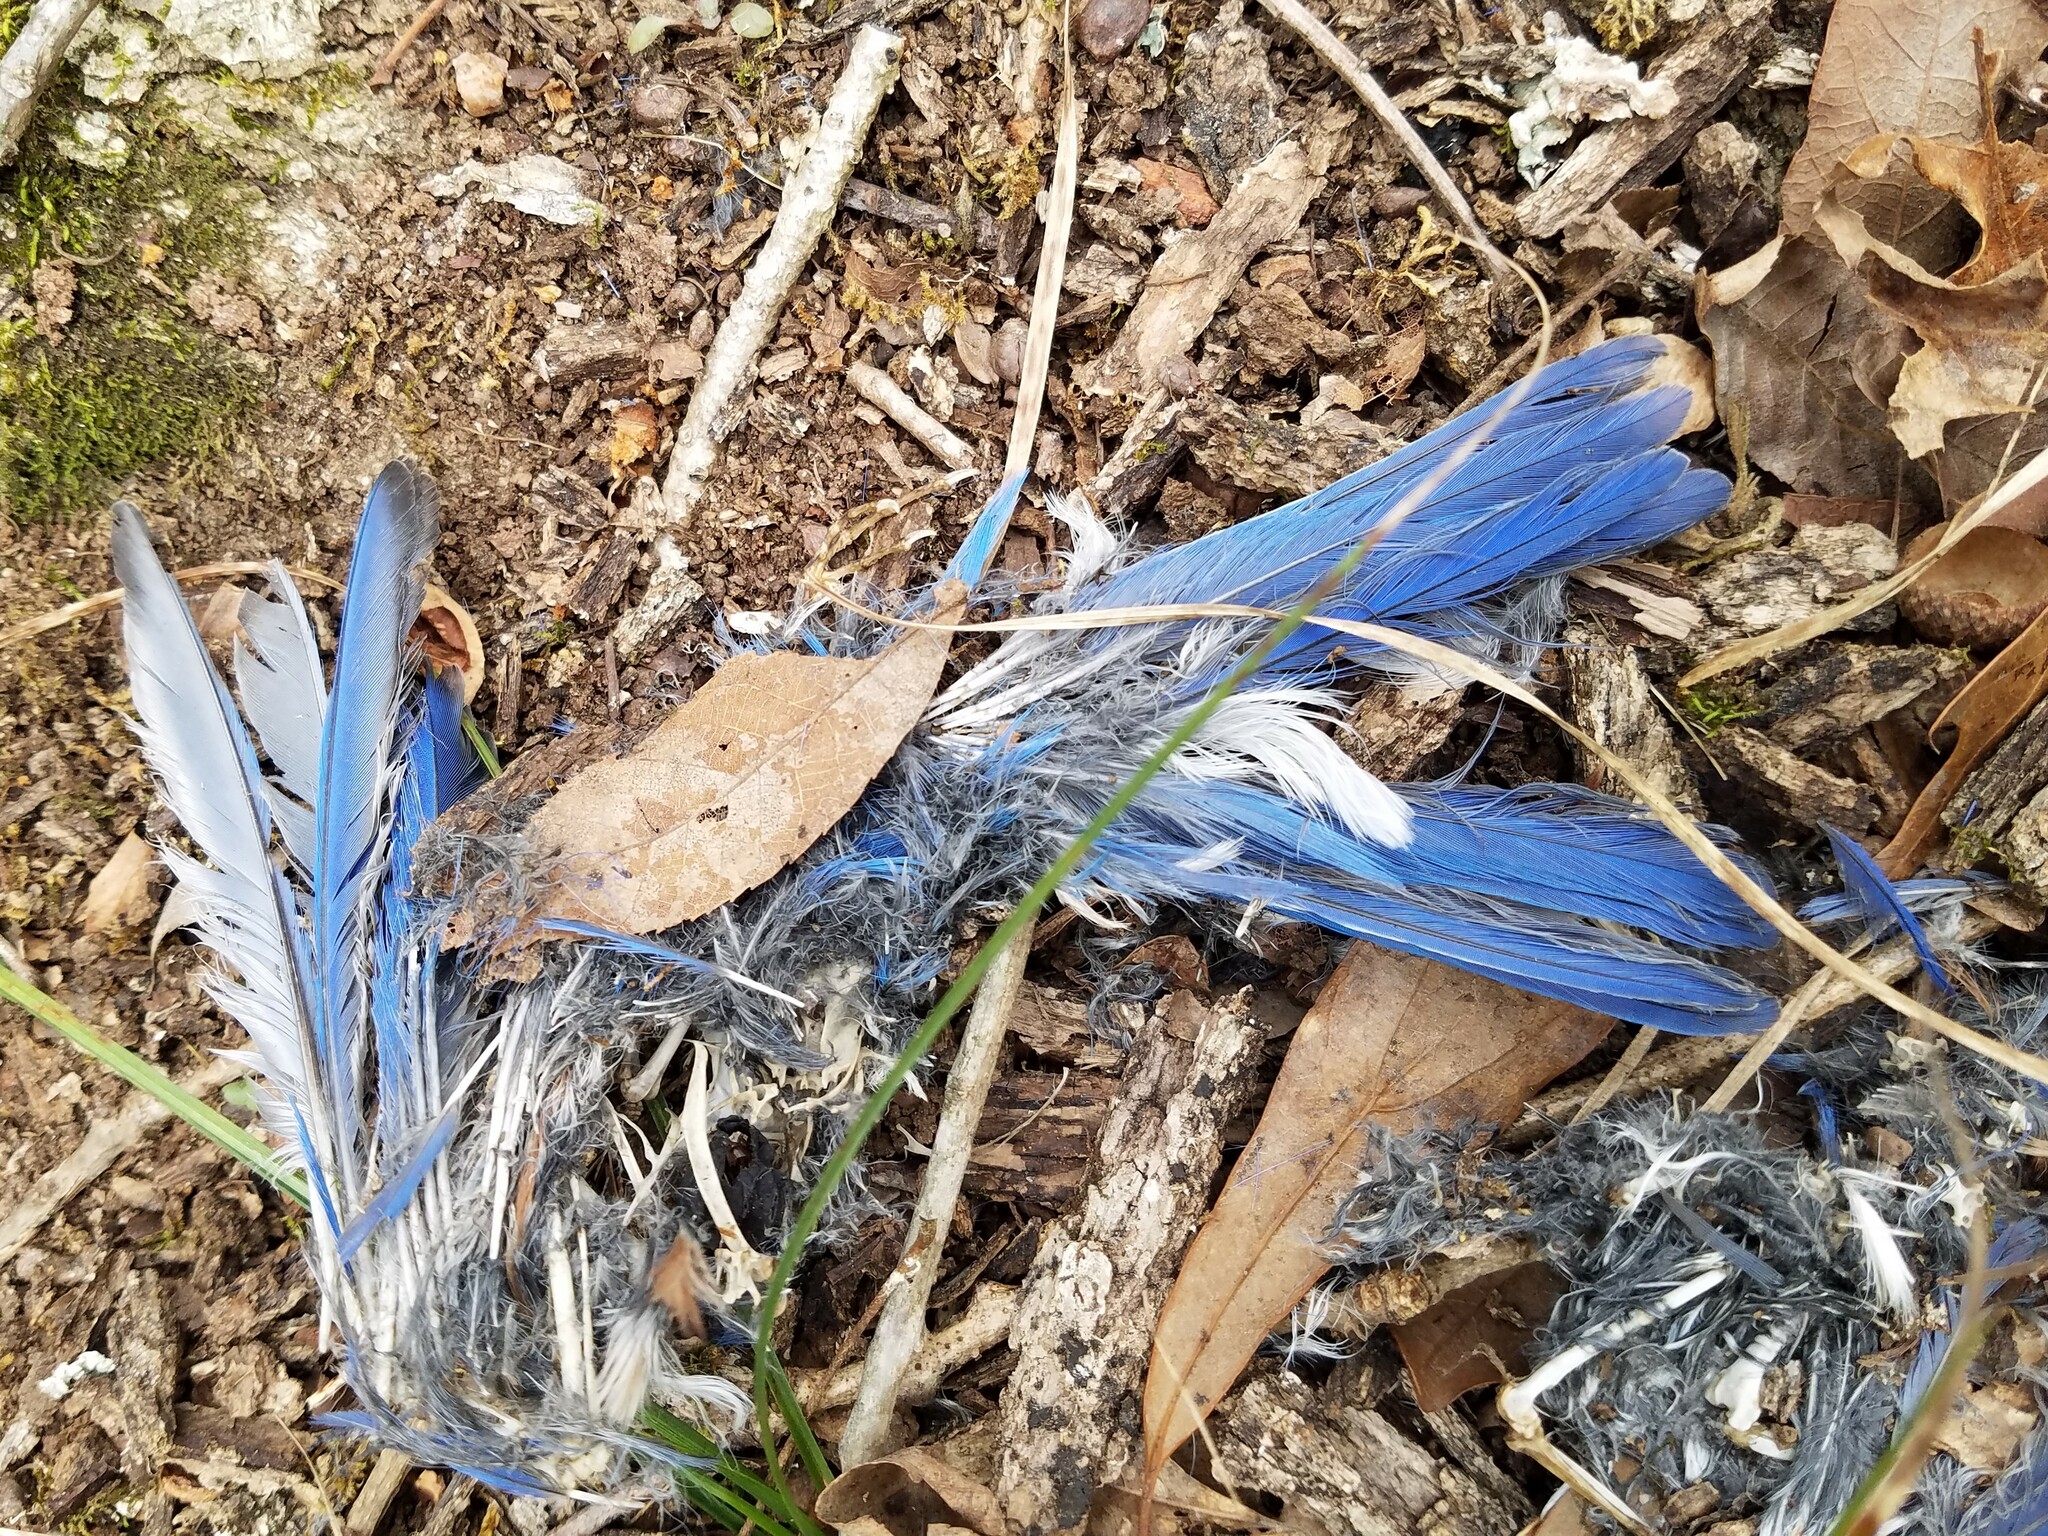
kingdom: Animalia
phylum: Chordata
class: Aves
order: Passeriformes
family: Turdidae
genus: Sialia
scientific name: Sialia sialis
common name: Eastern bluebird
